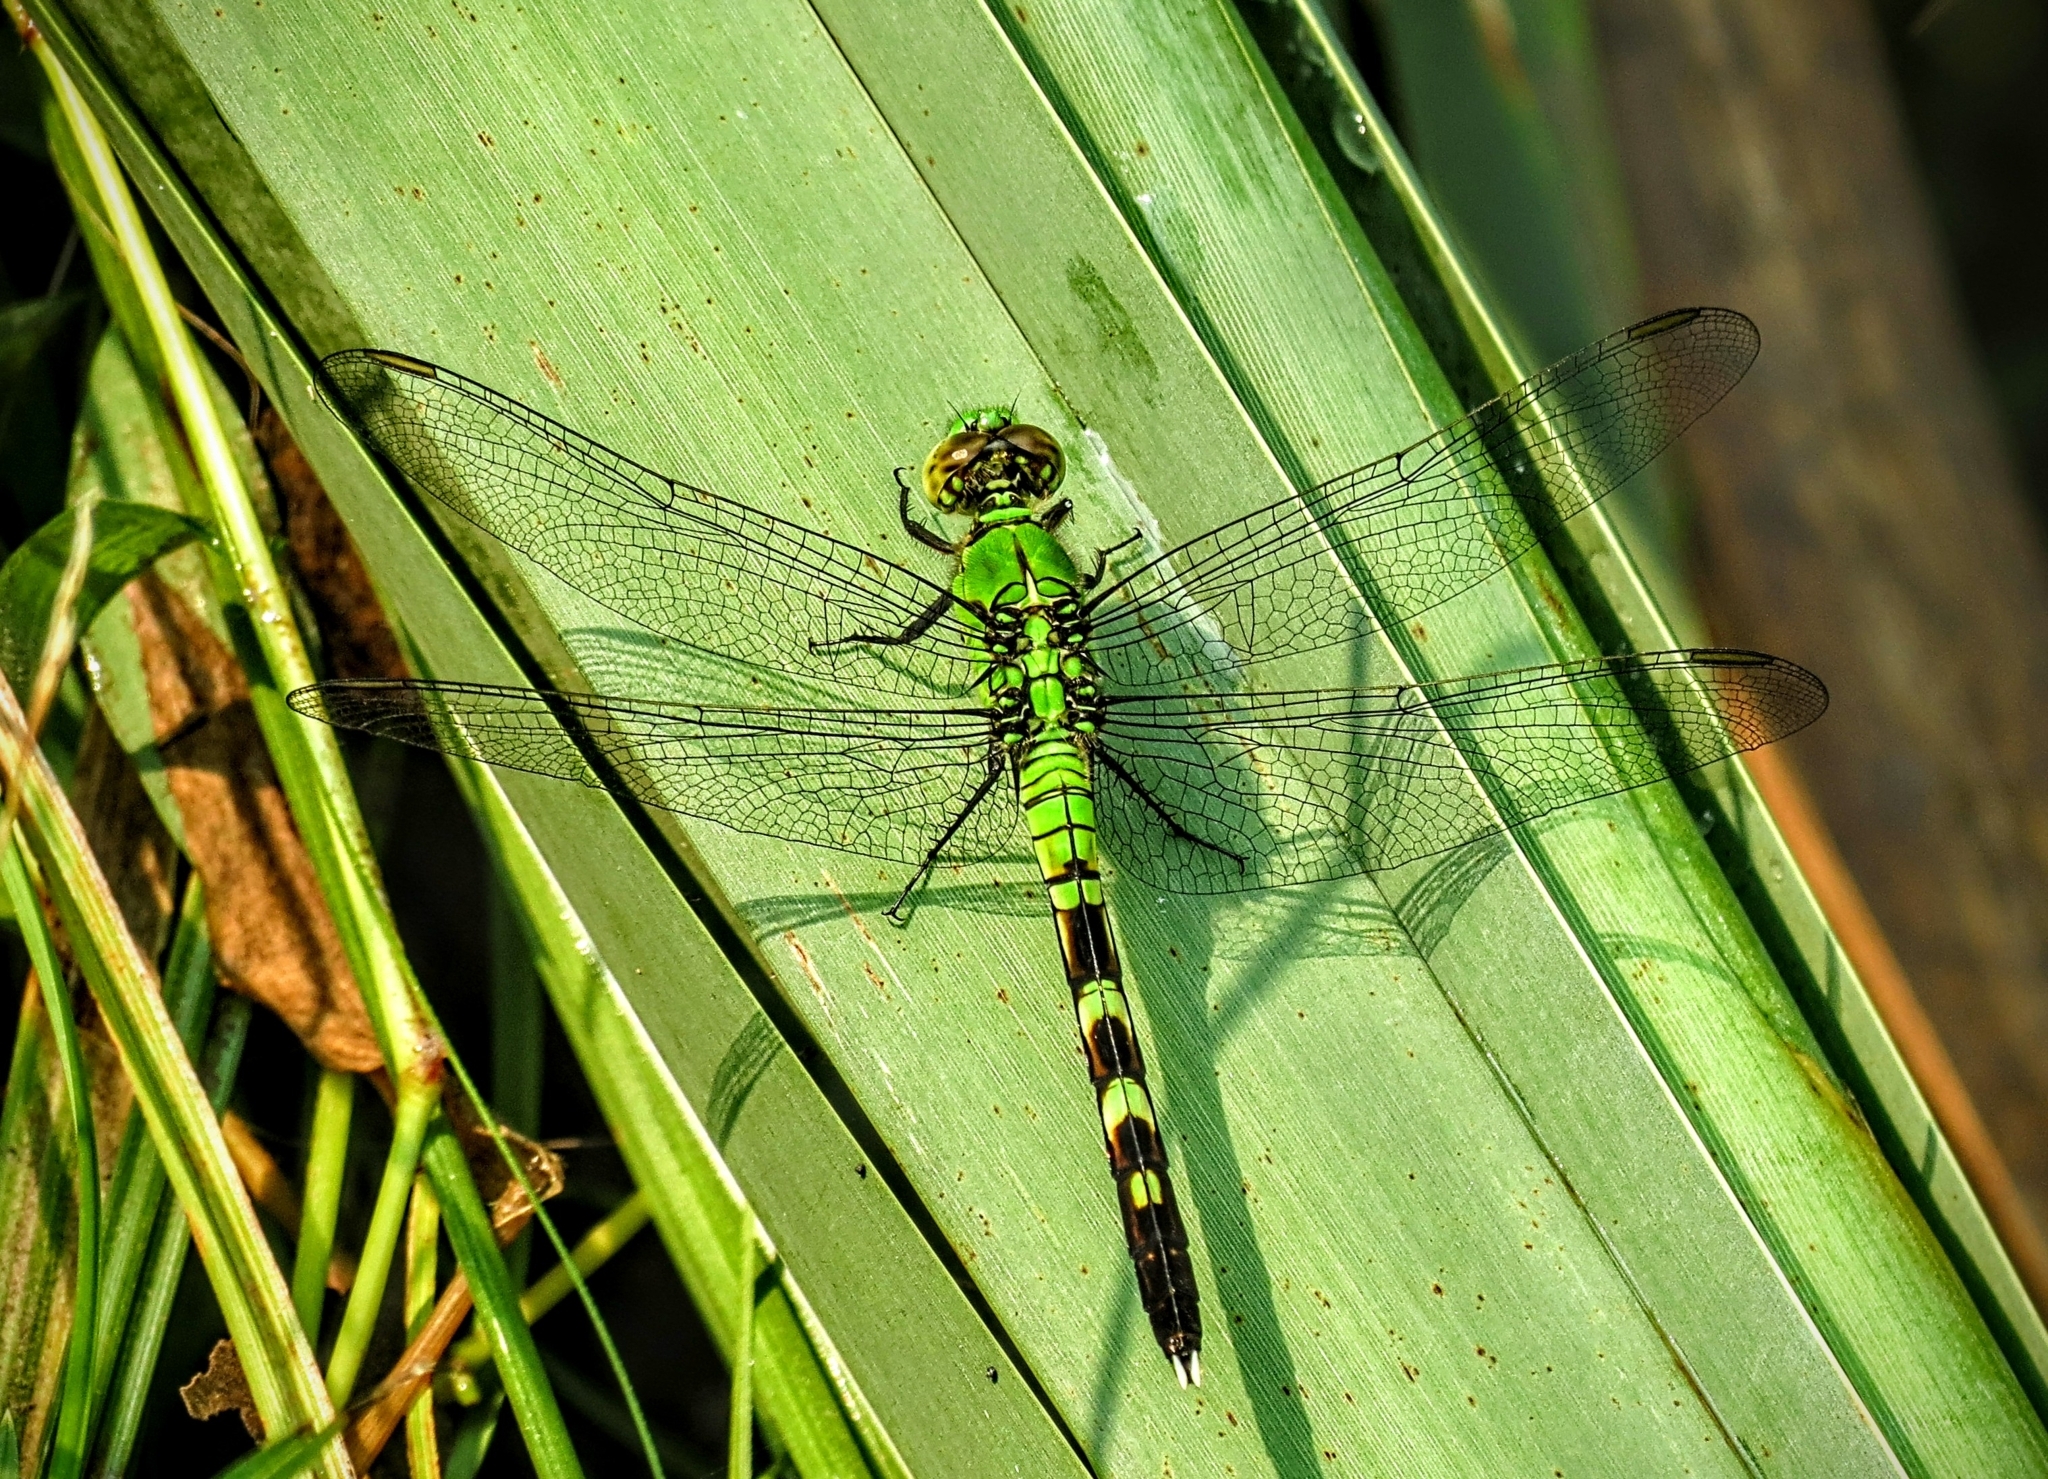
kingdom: Animalia
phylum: Arthropoda
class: Insecta
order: Odonata
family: Libellulidae
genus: Erythemis
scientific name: Erythemis simplicicollis
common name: Eastern pondhawk
